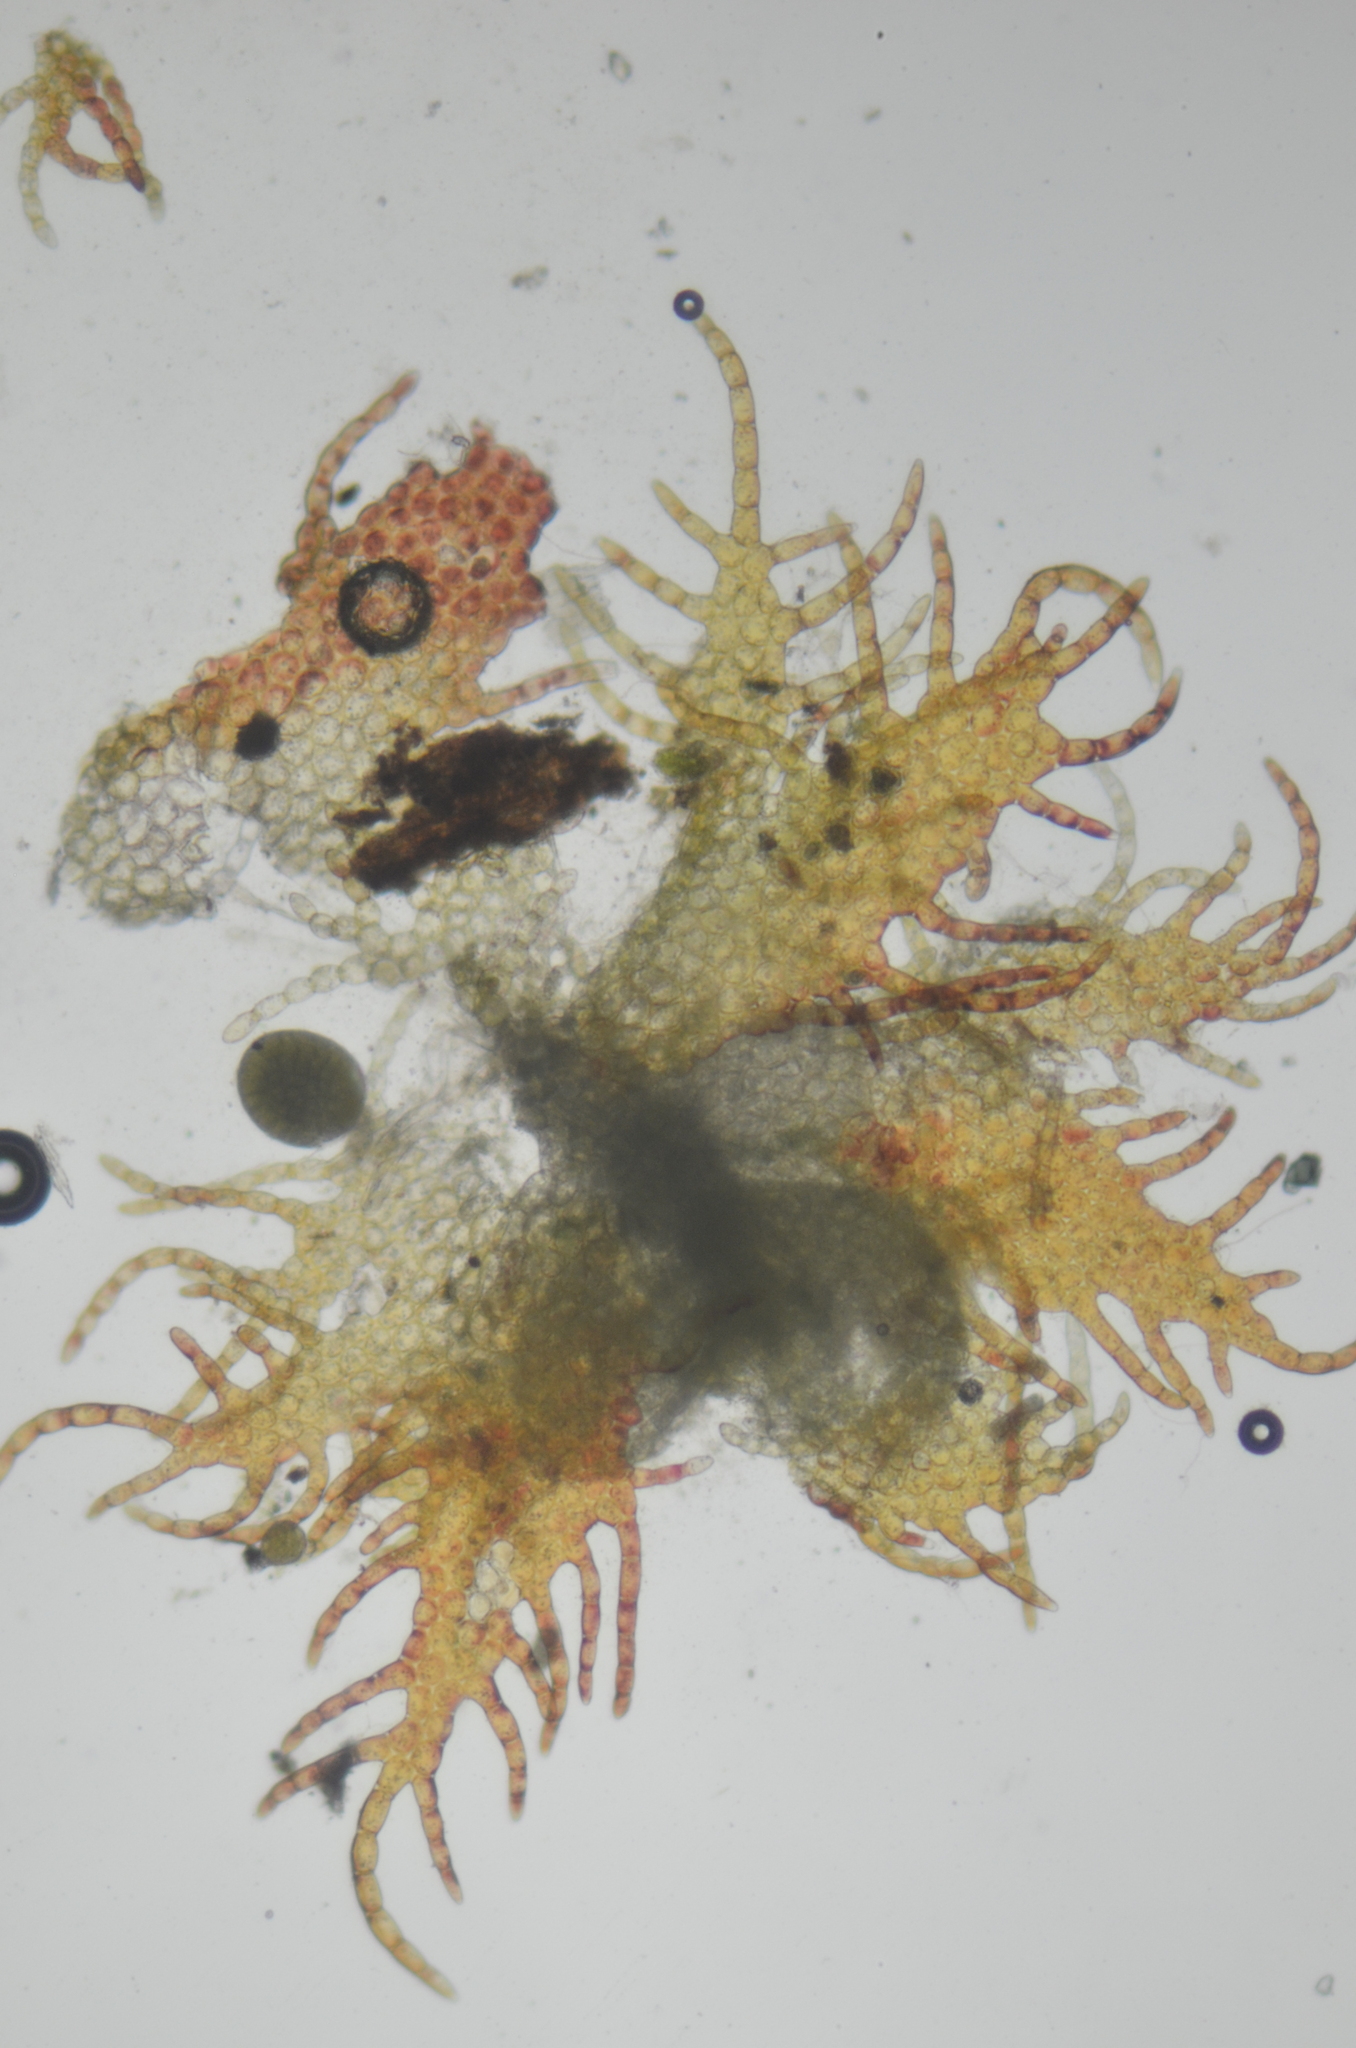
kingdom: Plantae
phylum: Marchantiophyta
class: Jungermanniopsida
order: Ptilidiales
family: Ptilidiaceae
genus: Ptilidium
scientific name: Ptilidium pulcherrimum
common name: Tree fringewort
